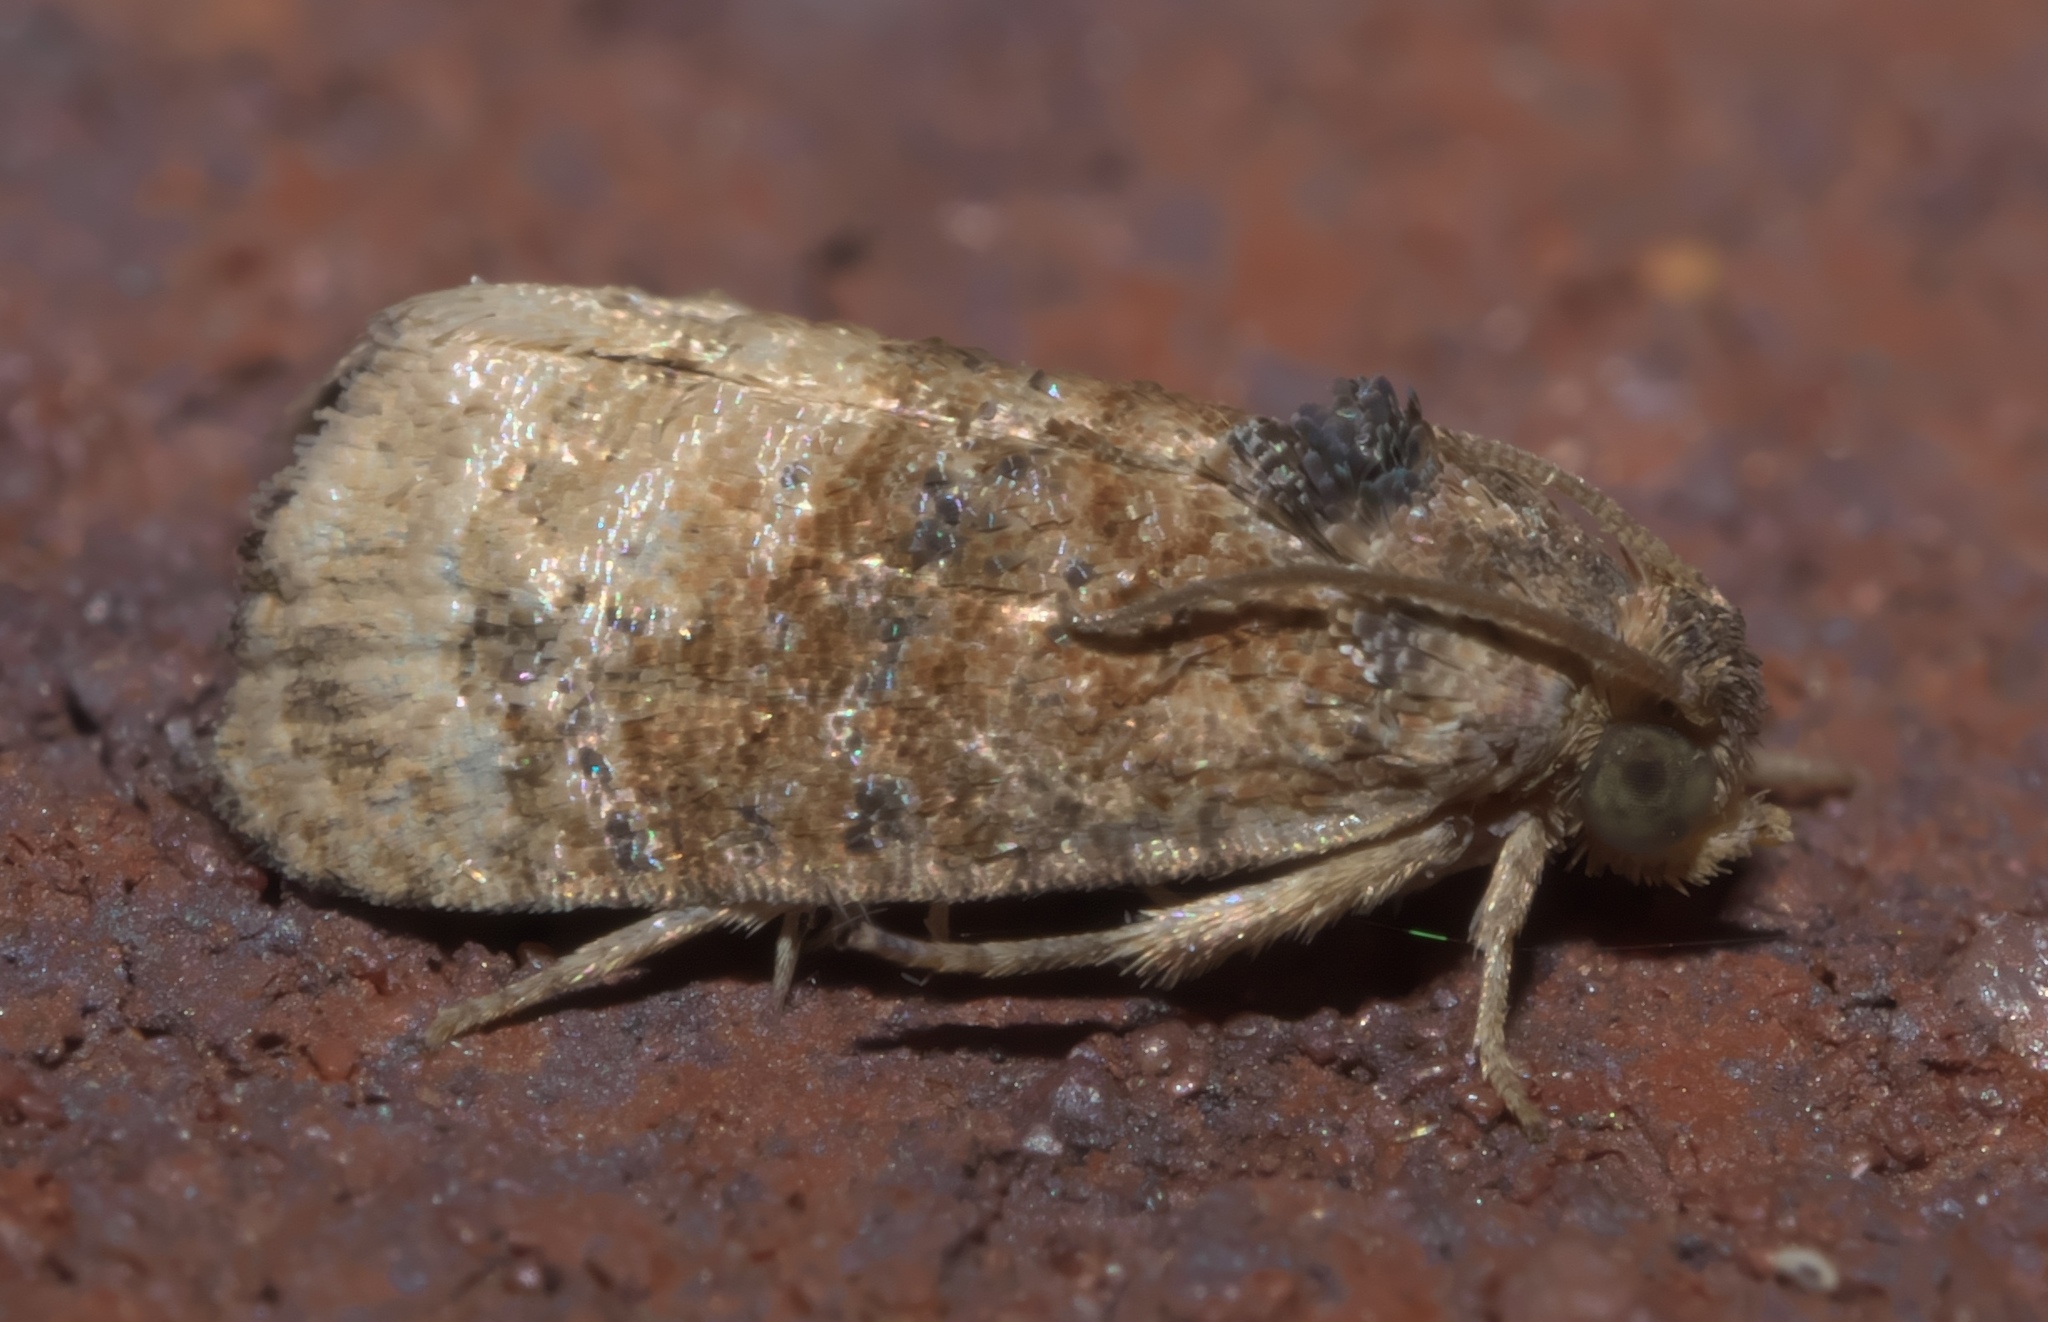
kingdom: Animalia
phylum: Arthropoda
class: Insecta
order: Lepidoptera
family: Tortricidae
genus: Ecdytolopha
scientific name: Ecdytolopha mana
